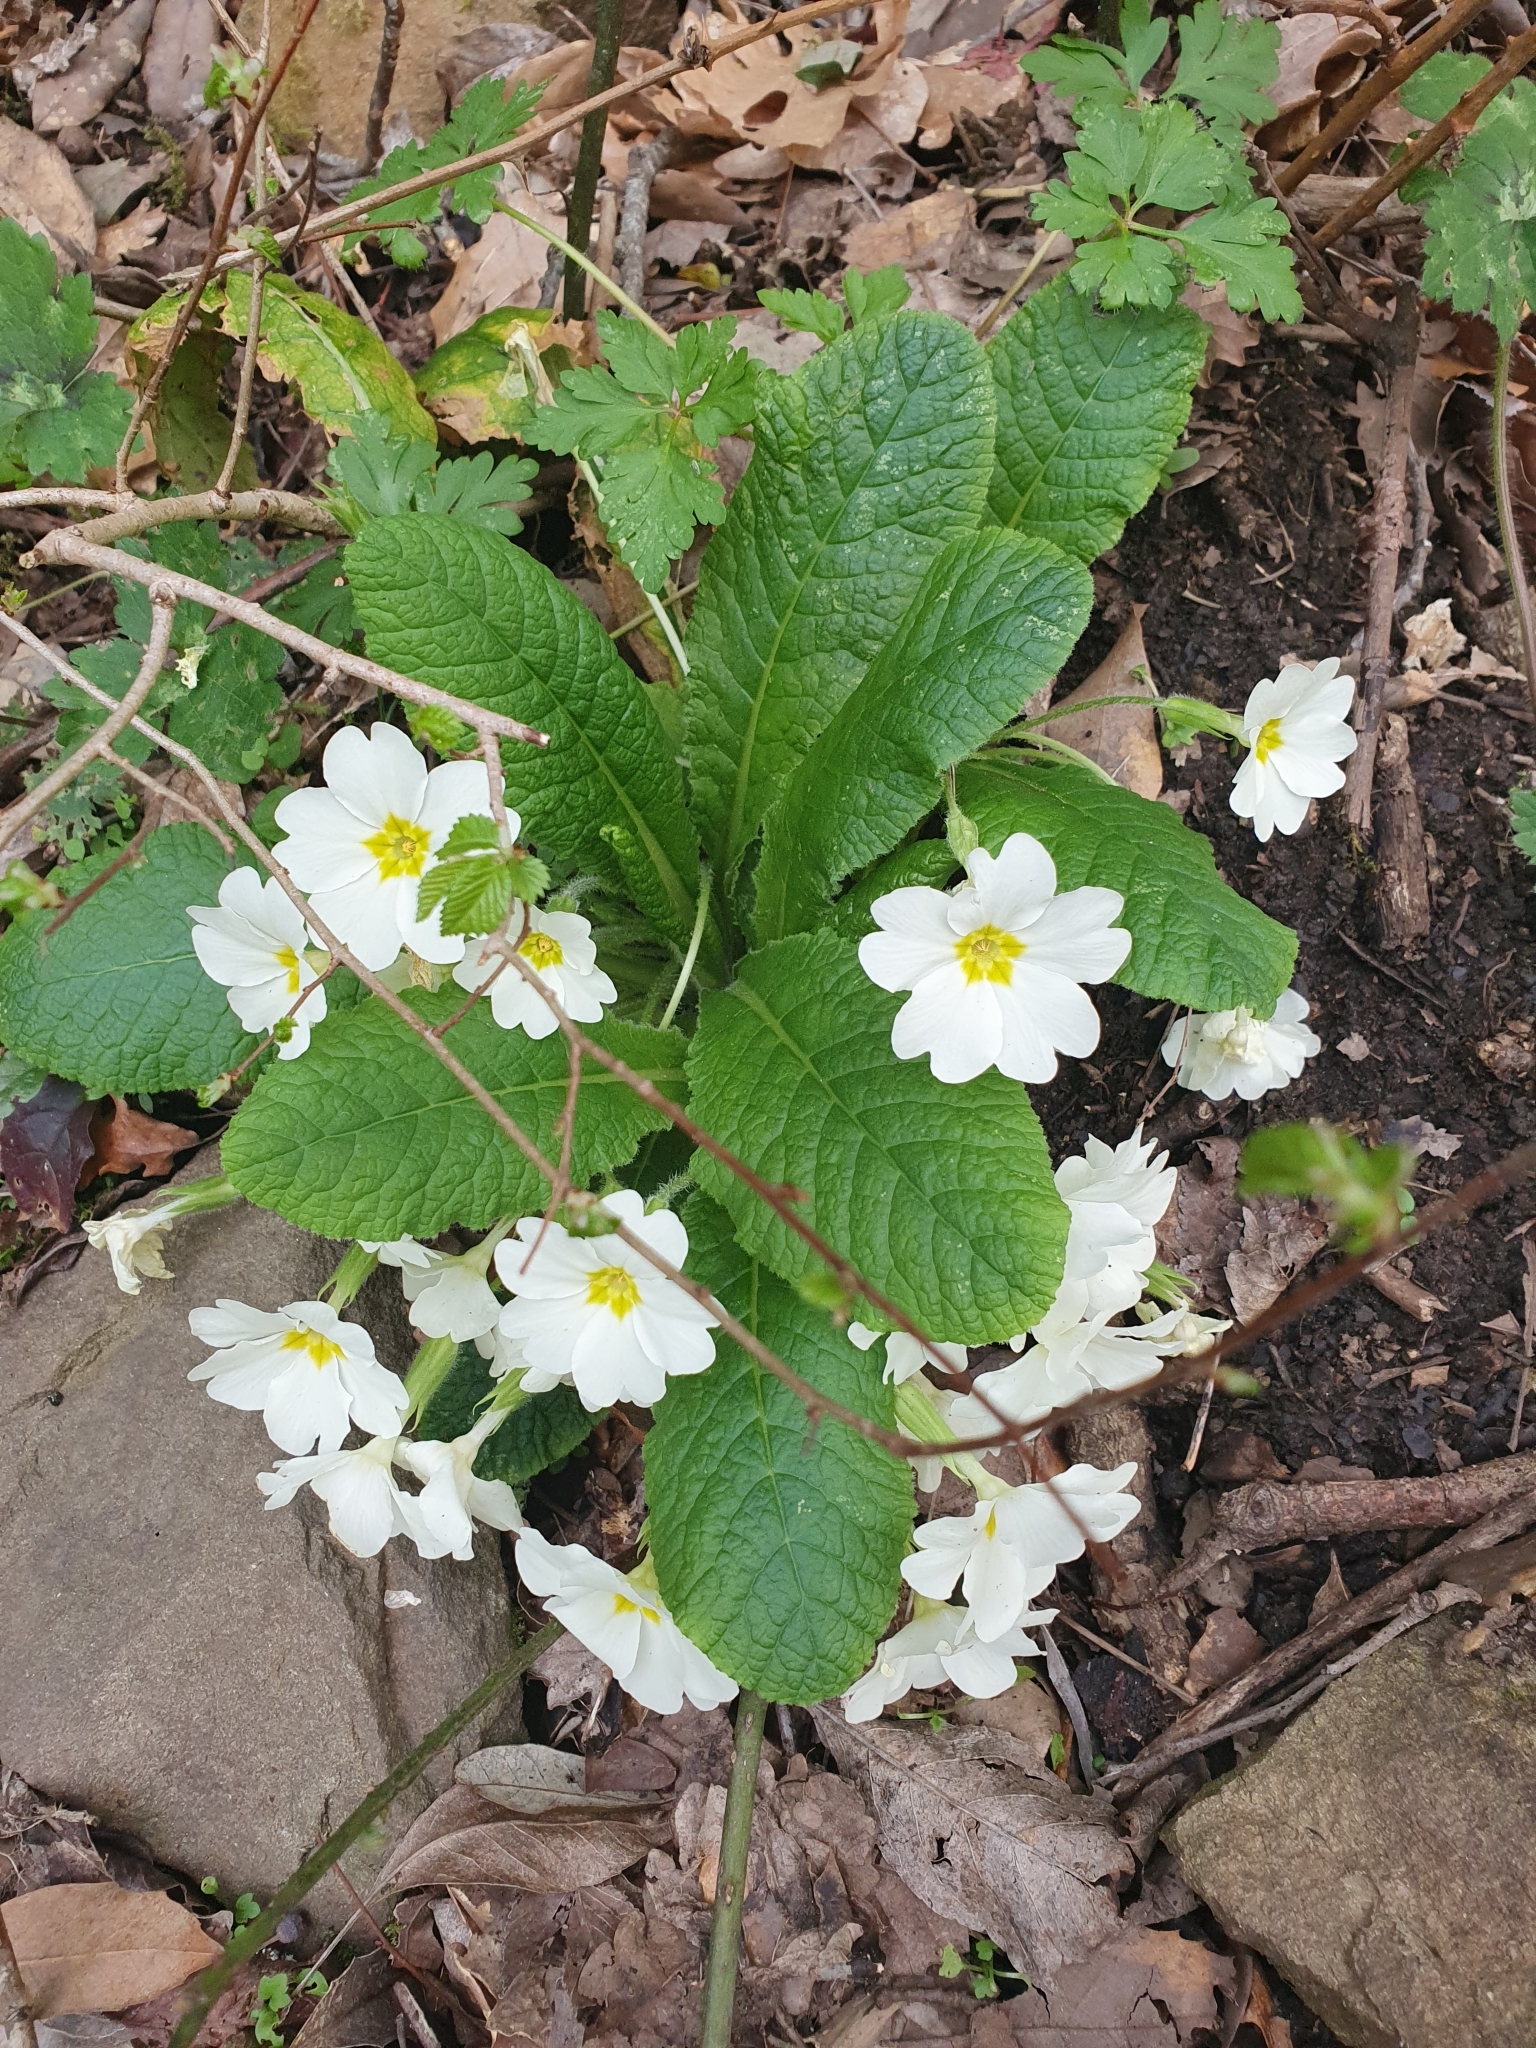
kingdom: Plantae
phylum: Tracheophyta
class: Magnoliopsida
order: Ericales
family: Primulaceae
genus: Primula
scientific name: Primula vulgaris
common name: Primrose
